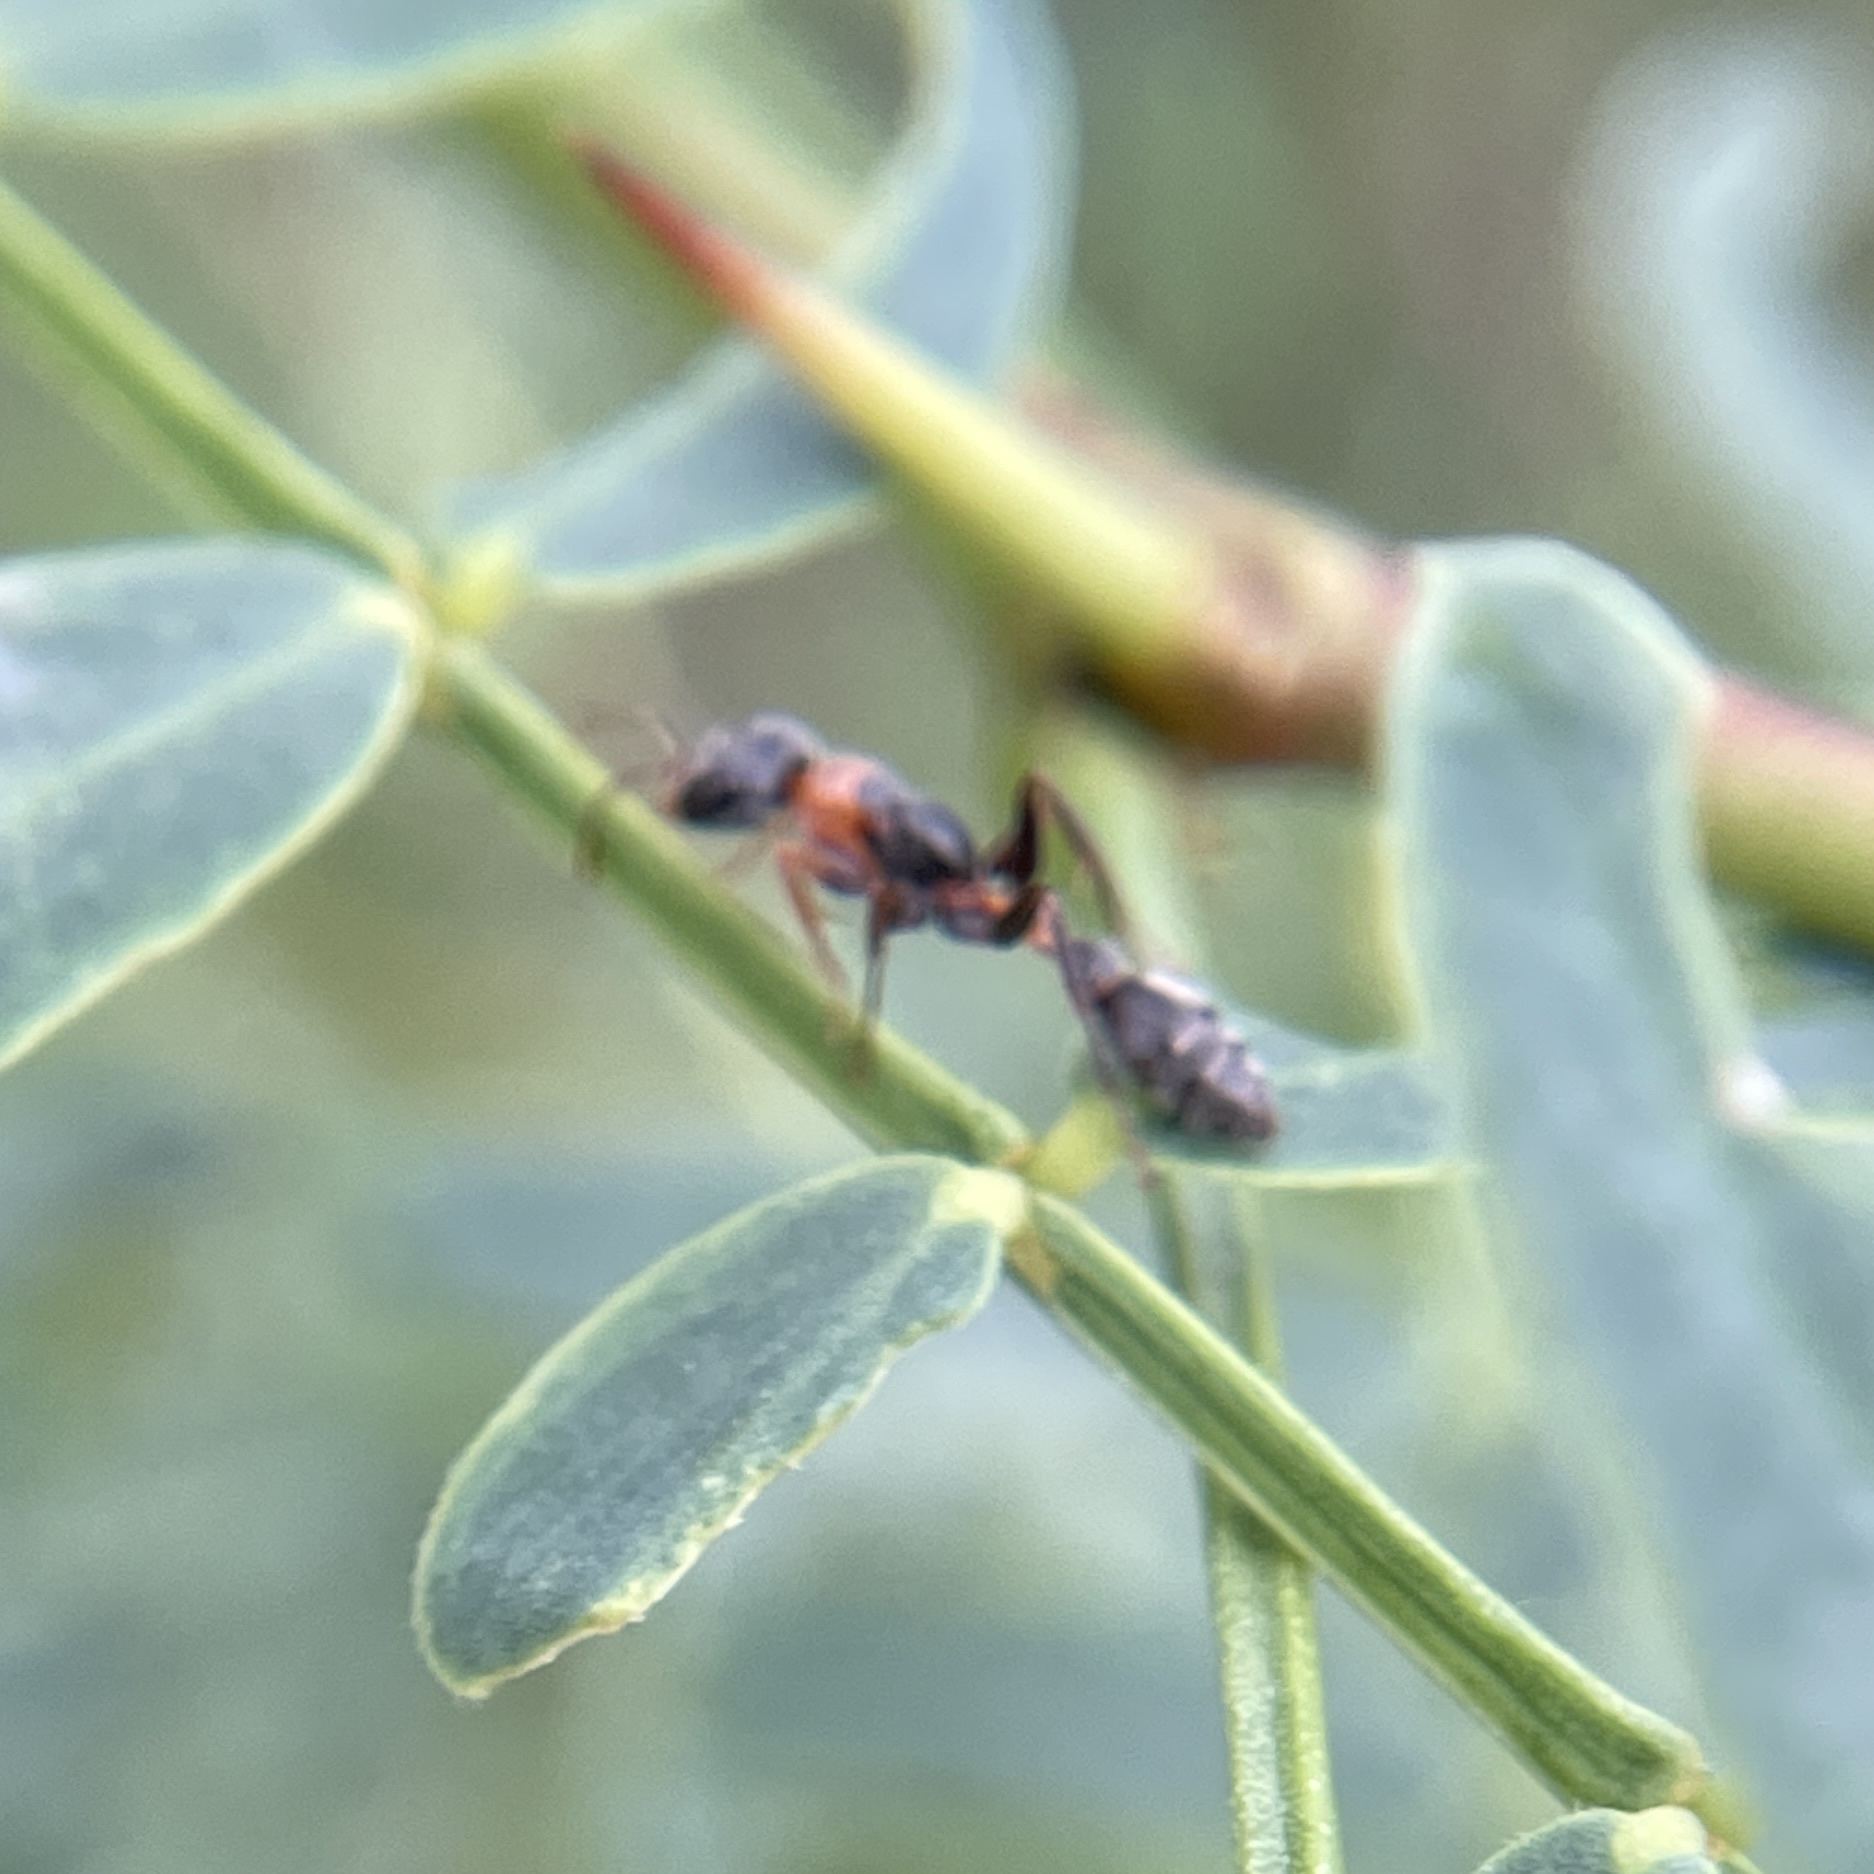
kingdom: Animalia
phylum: Arthropoda
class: Insecta
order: Hymenoptera
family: Formicidae
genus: Pseudomyrmex
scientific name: Pseudomyrmex gracilis
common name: Graceful twig ant
